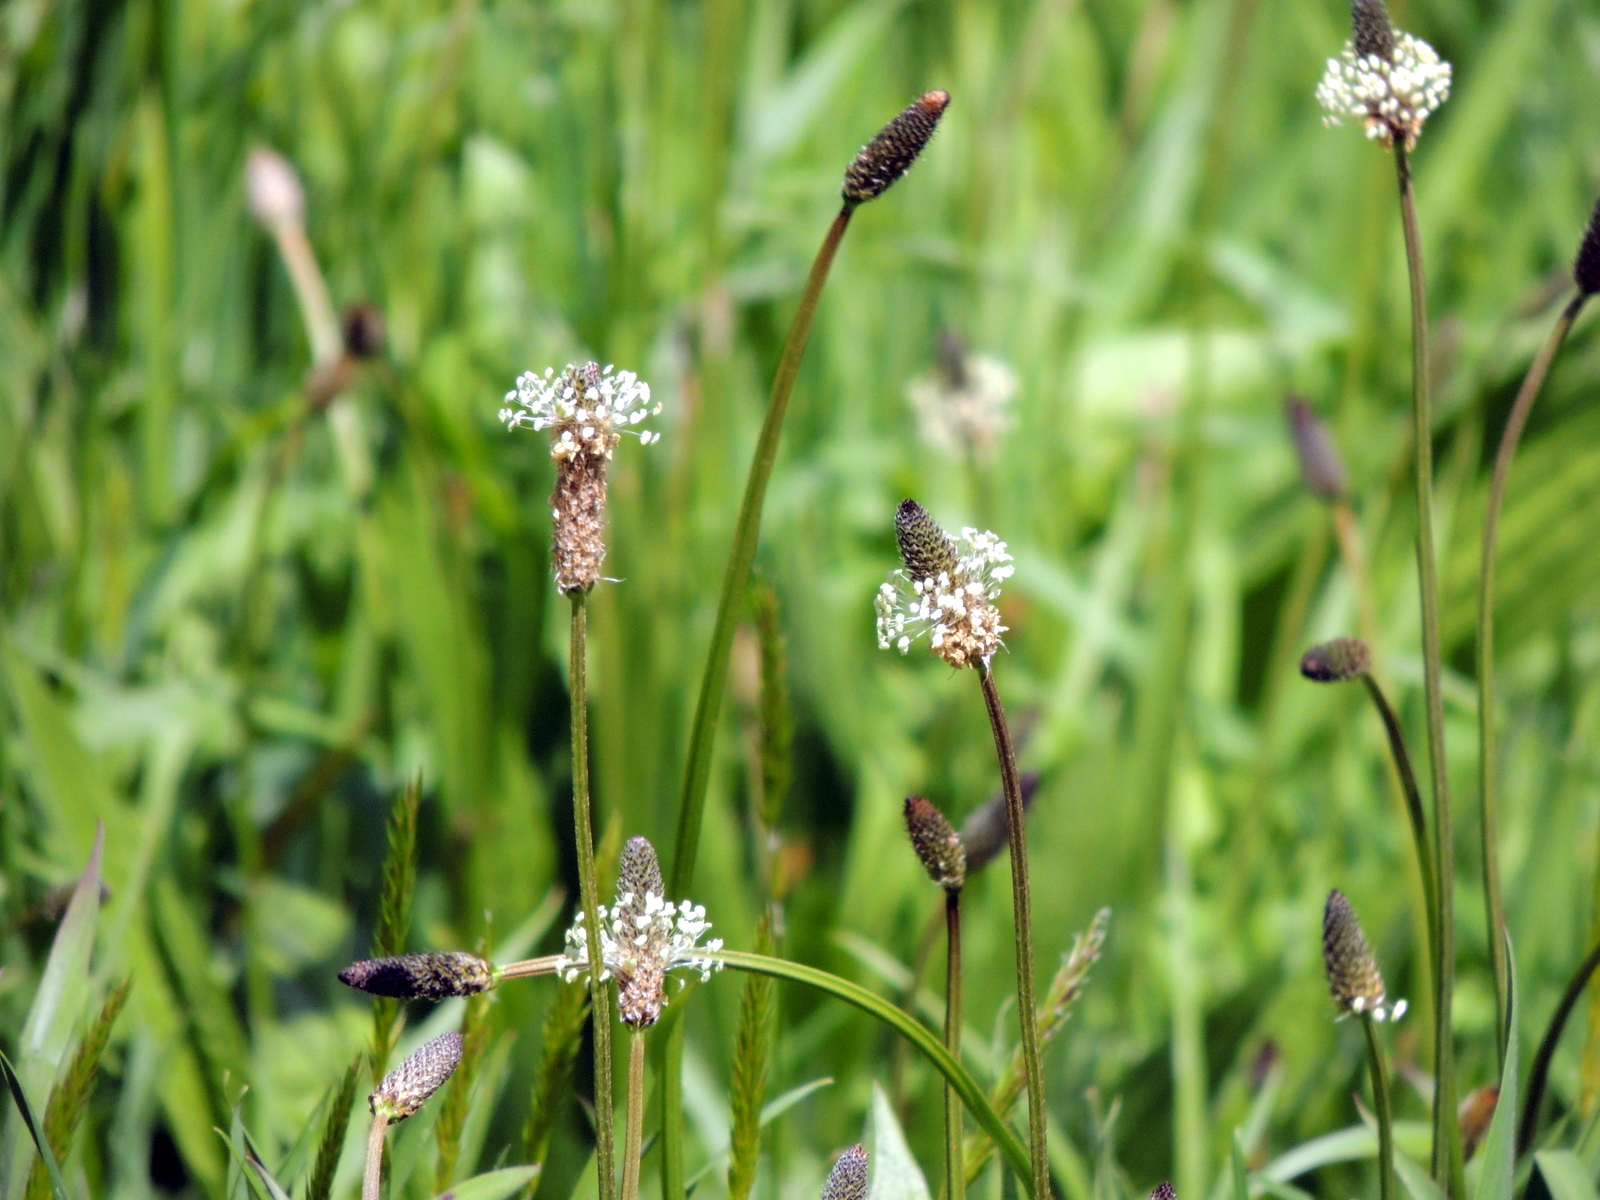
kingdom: Plantae
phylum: Tracheophyta
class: Magnoliopsida
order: Lamiales
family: Plantaginaceae
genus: Plantago
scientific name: Plantago lanceolata
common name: Ribwort plantain
